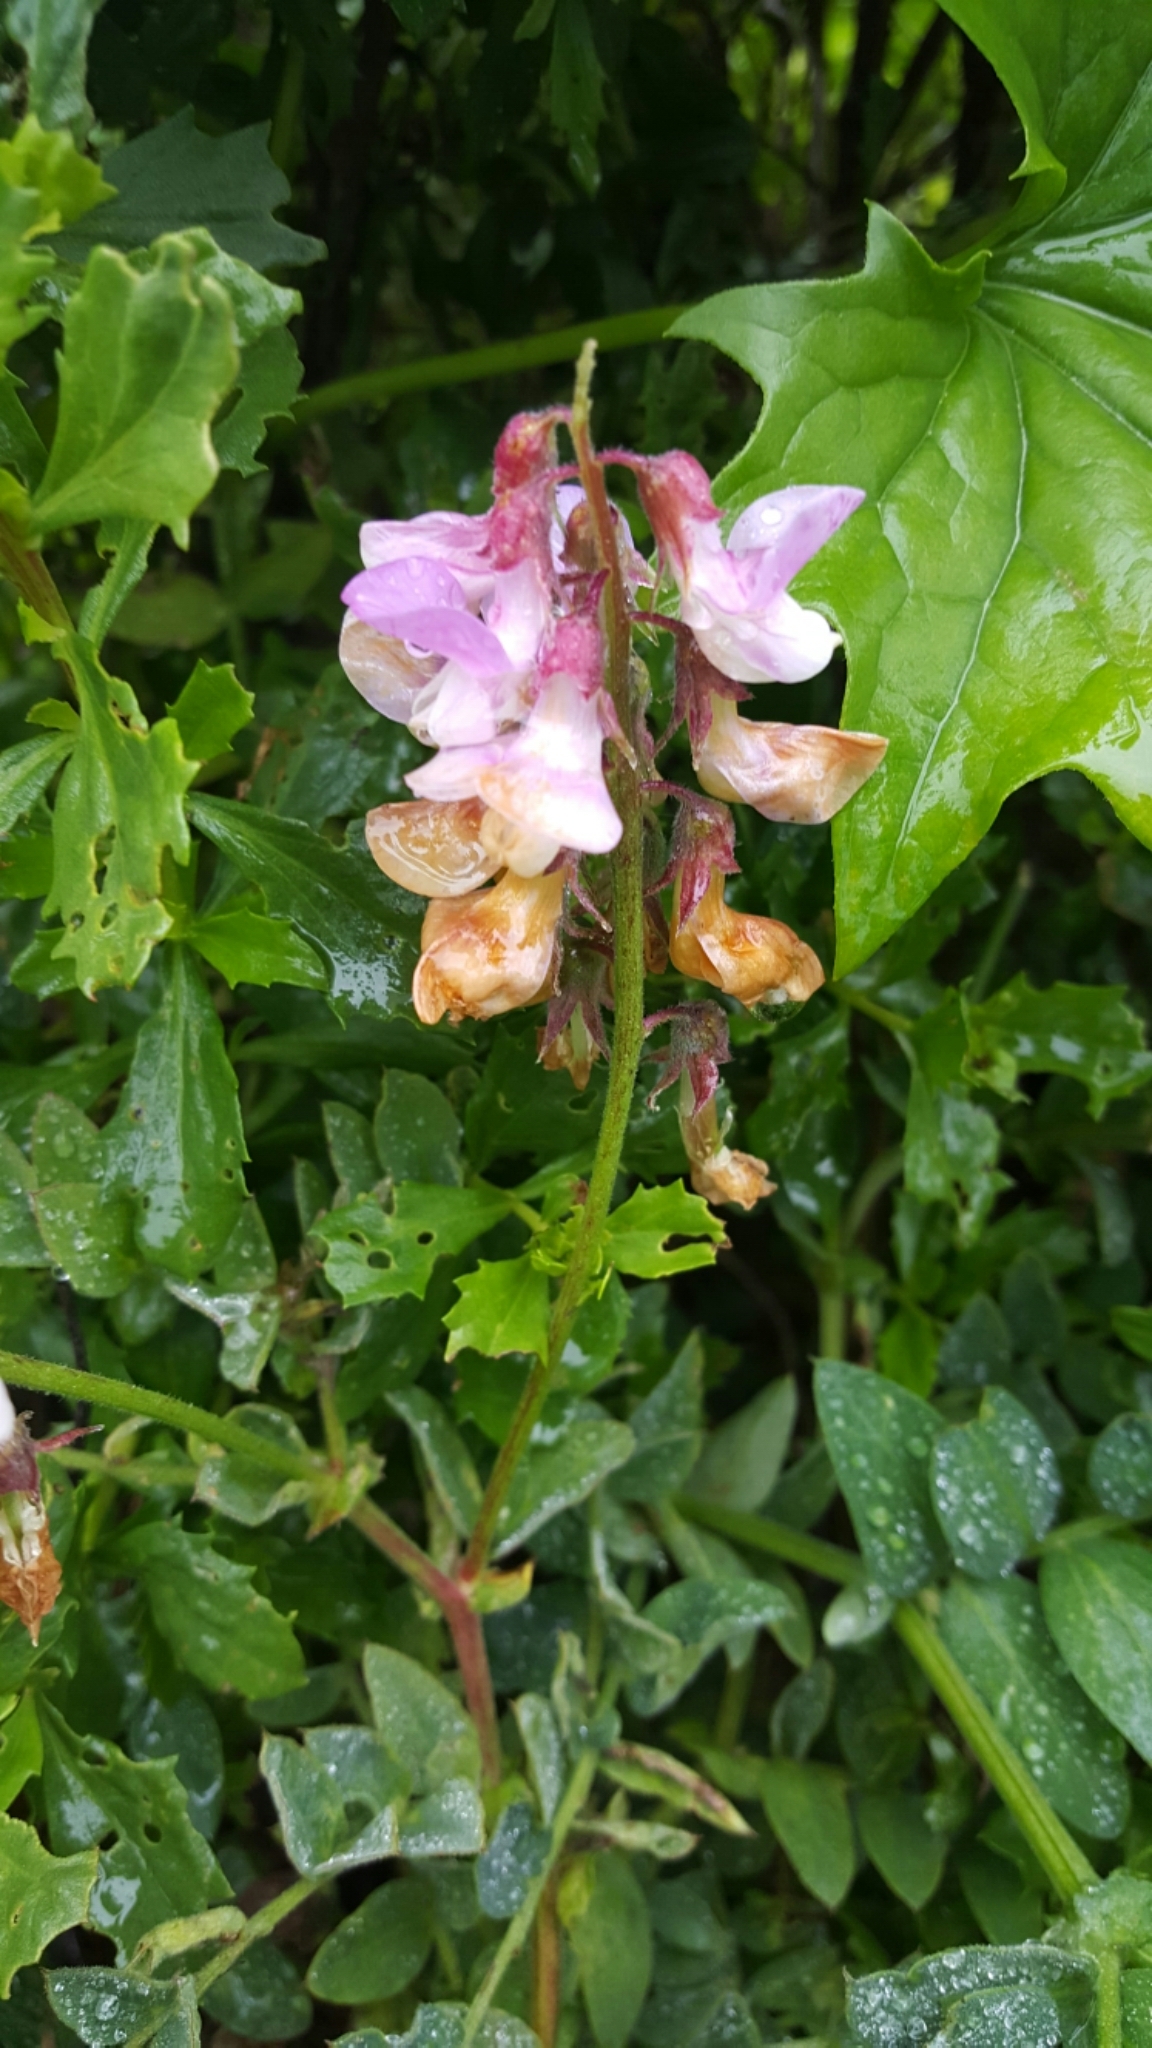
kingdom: Plantae
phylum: Tracheophyta
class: Magnoliopsida
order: Fabales
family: Fabaceae
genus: Lathyrus
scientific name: Lathyrus vestitus
